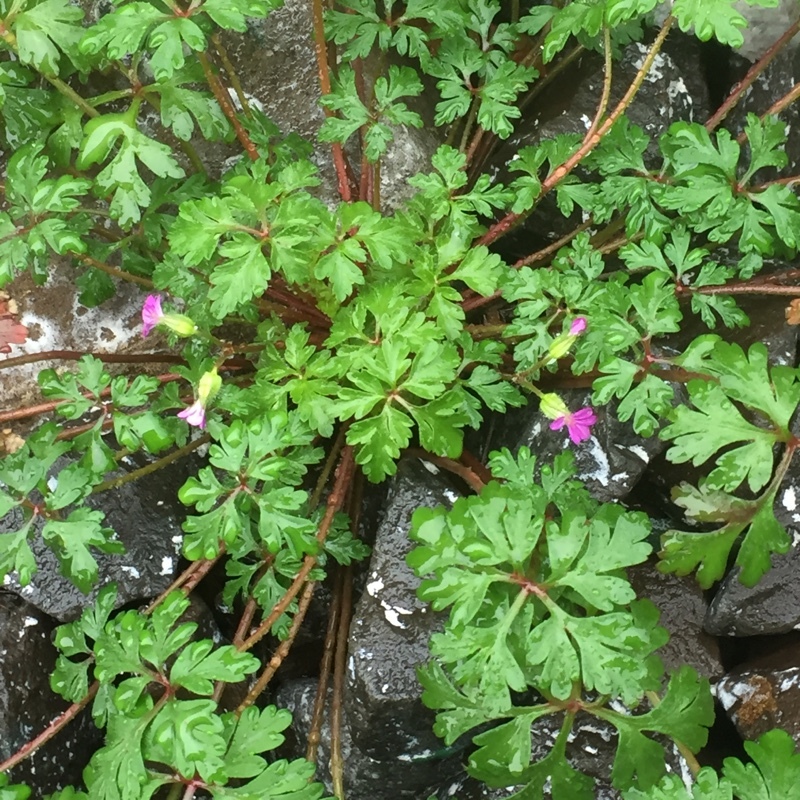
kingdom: Plantae
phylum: Tracheophyta
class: Magnoliopsida
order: Geraniales
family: Geraniaceae
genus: Geranium
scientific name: Geranium purpureum
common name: Little-robin
